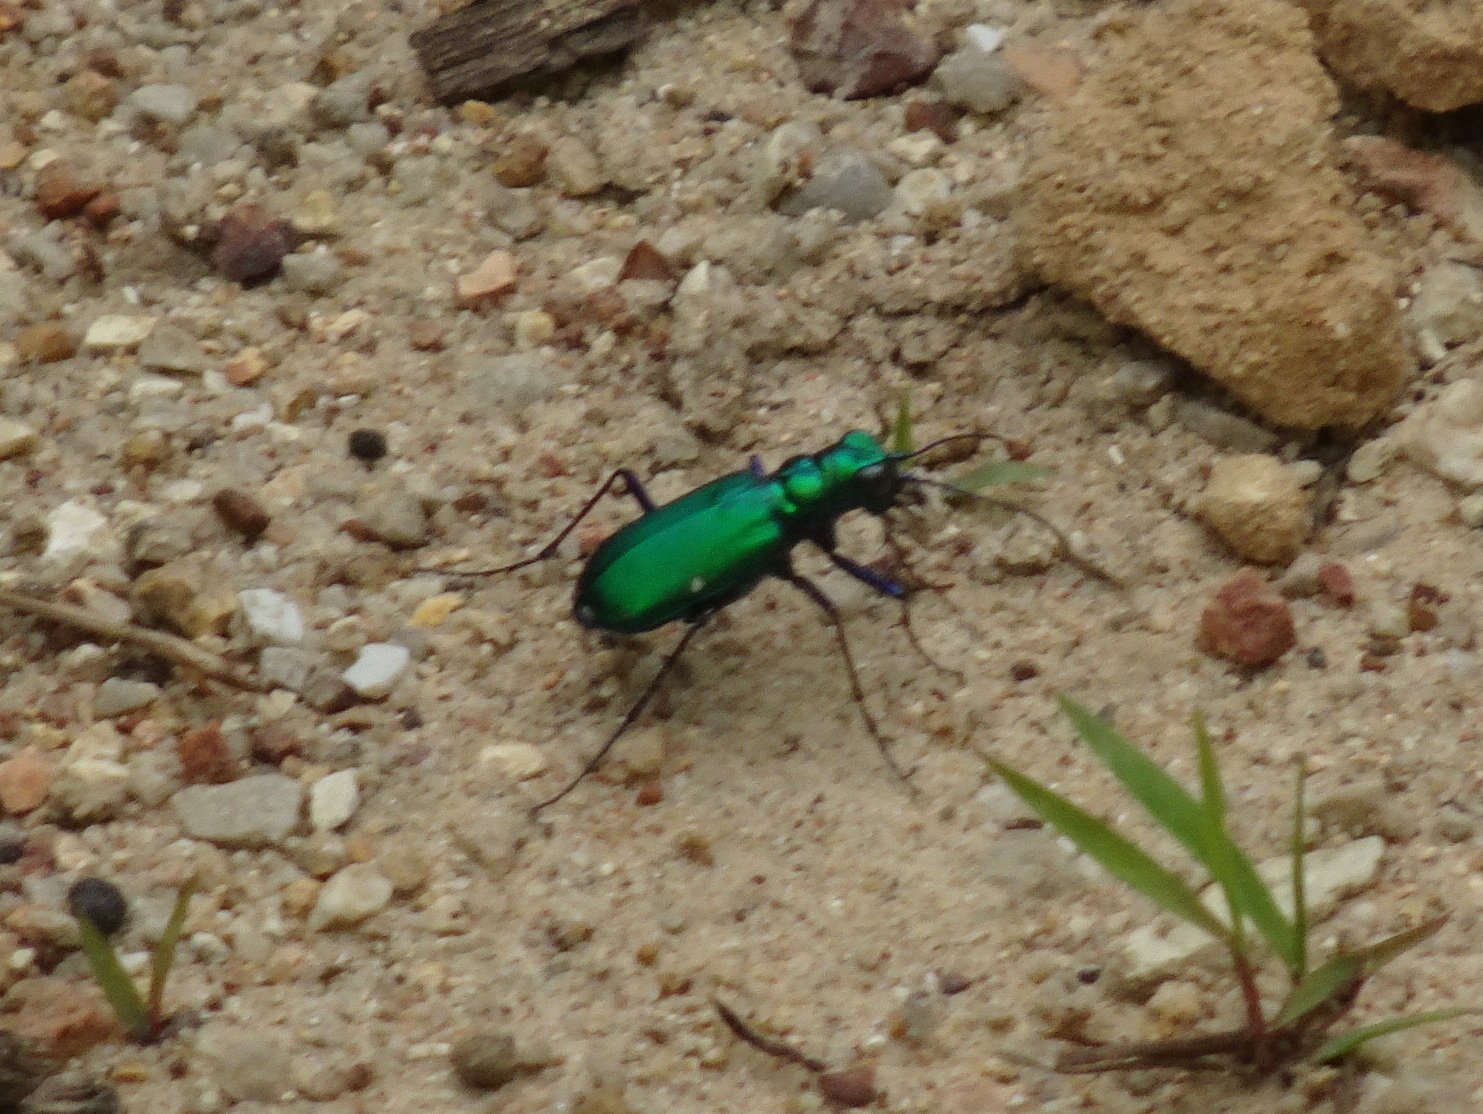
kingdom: Animalia
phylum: Arthropoda
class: Insecta
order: Coleoptera
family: Carabidae
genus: Cicindela
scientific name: Cicindela sexguttata
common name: Six-spotted tiger beetle
